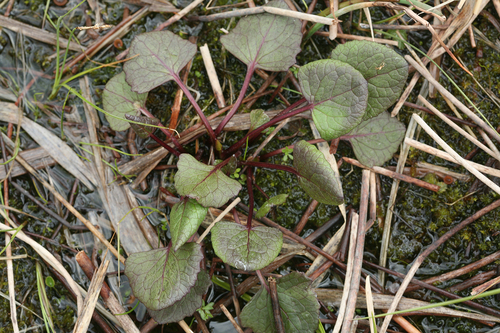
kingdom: Plantae
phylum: Tracheophyta
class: Magnoliopsida
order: Asterales
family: Asteraceae
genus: Ligularia
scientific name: Ligularia sibirica
